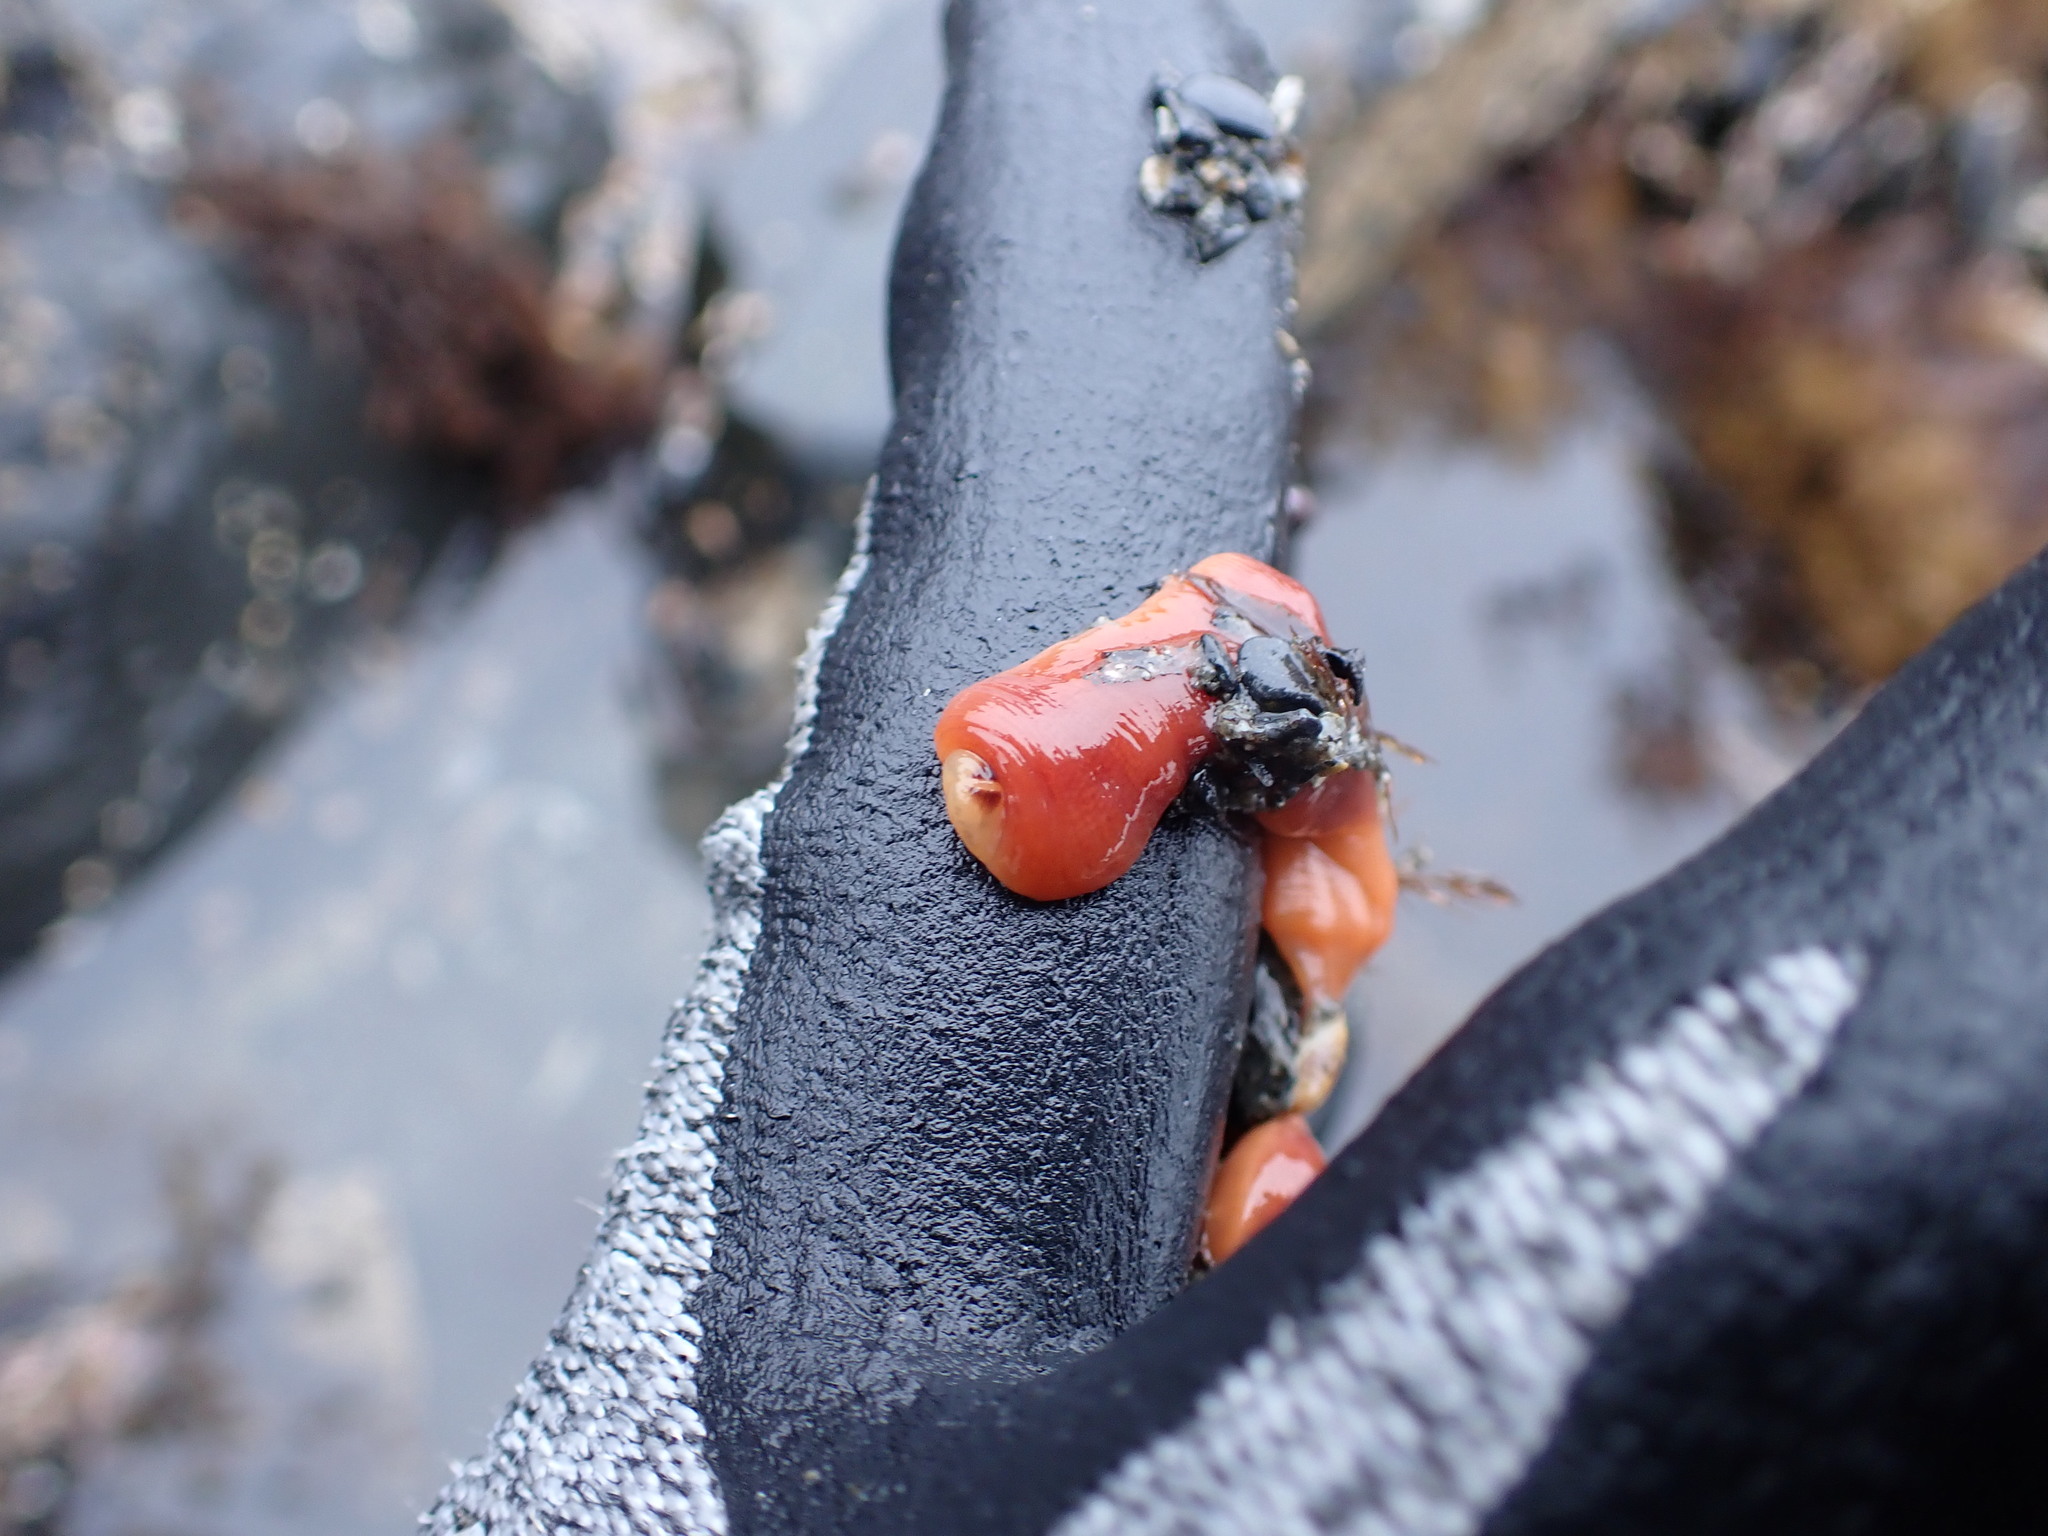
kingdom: Animalia
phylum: Nemertea
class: Hoplonemertea
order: Monostilifera
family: Cratenemertidae
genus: Nipponnemertes
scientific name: Nipponnemertes bimaculata
